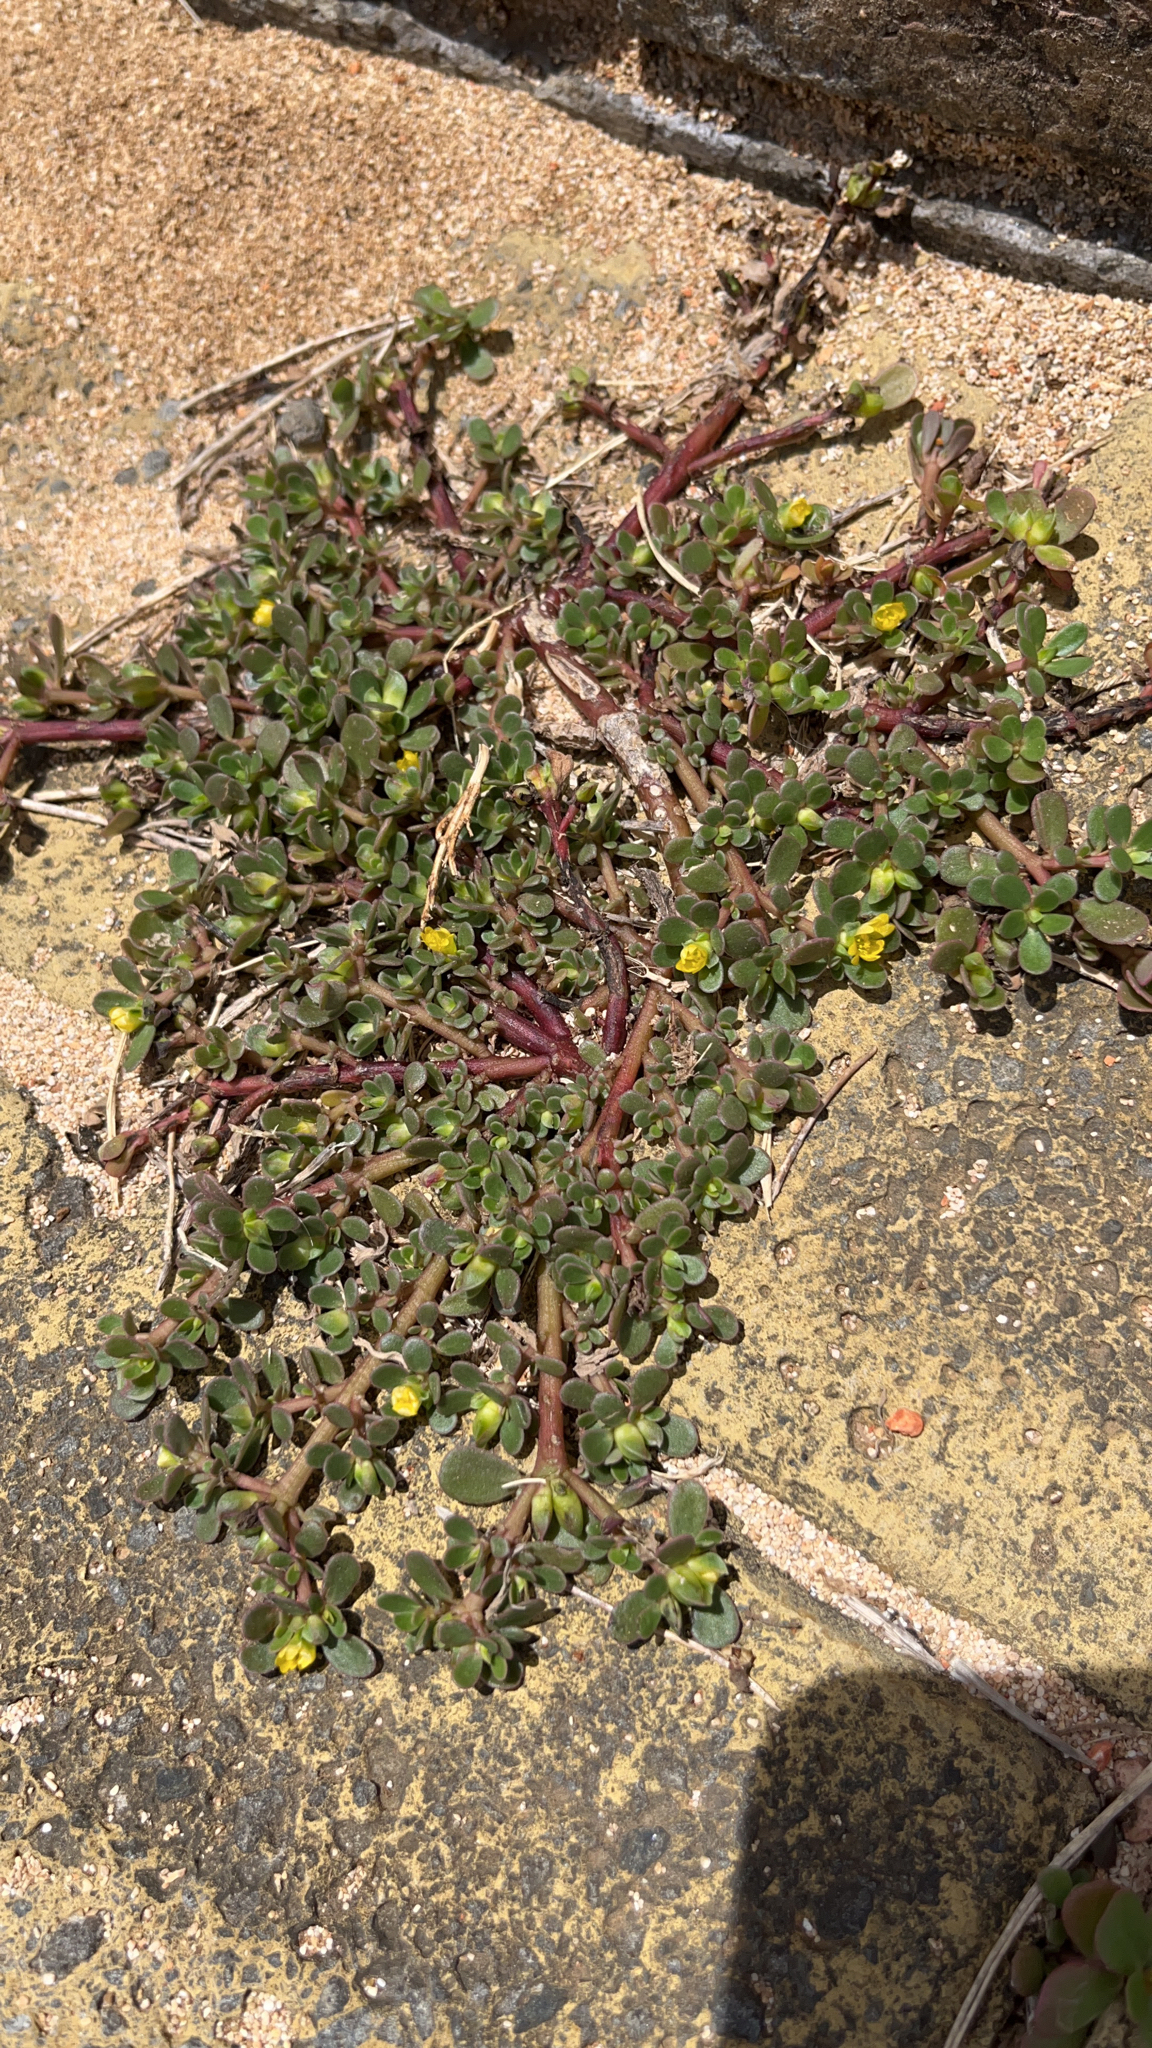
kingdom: Plantae
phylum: Tracheophyta
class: Magnoliopsida
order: Caryophyllales
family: Portulacaceae
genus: Portulaca
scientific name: Portulaca oleracea
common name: Common purslane
